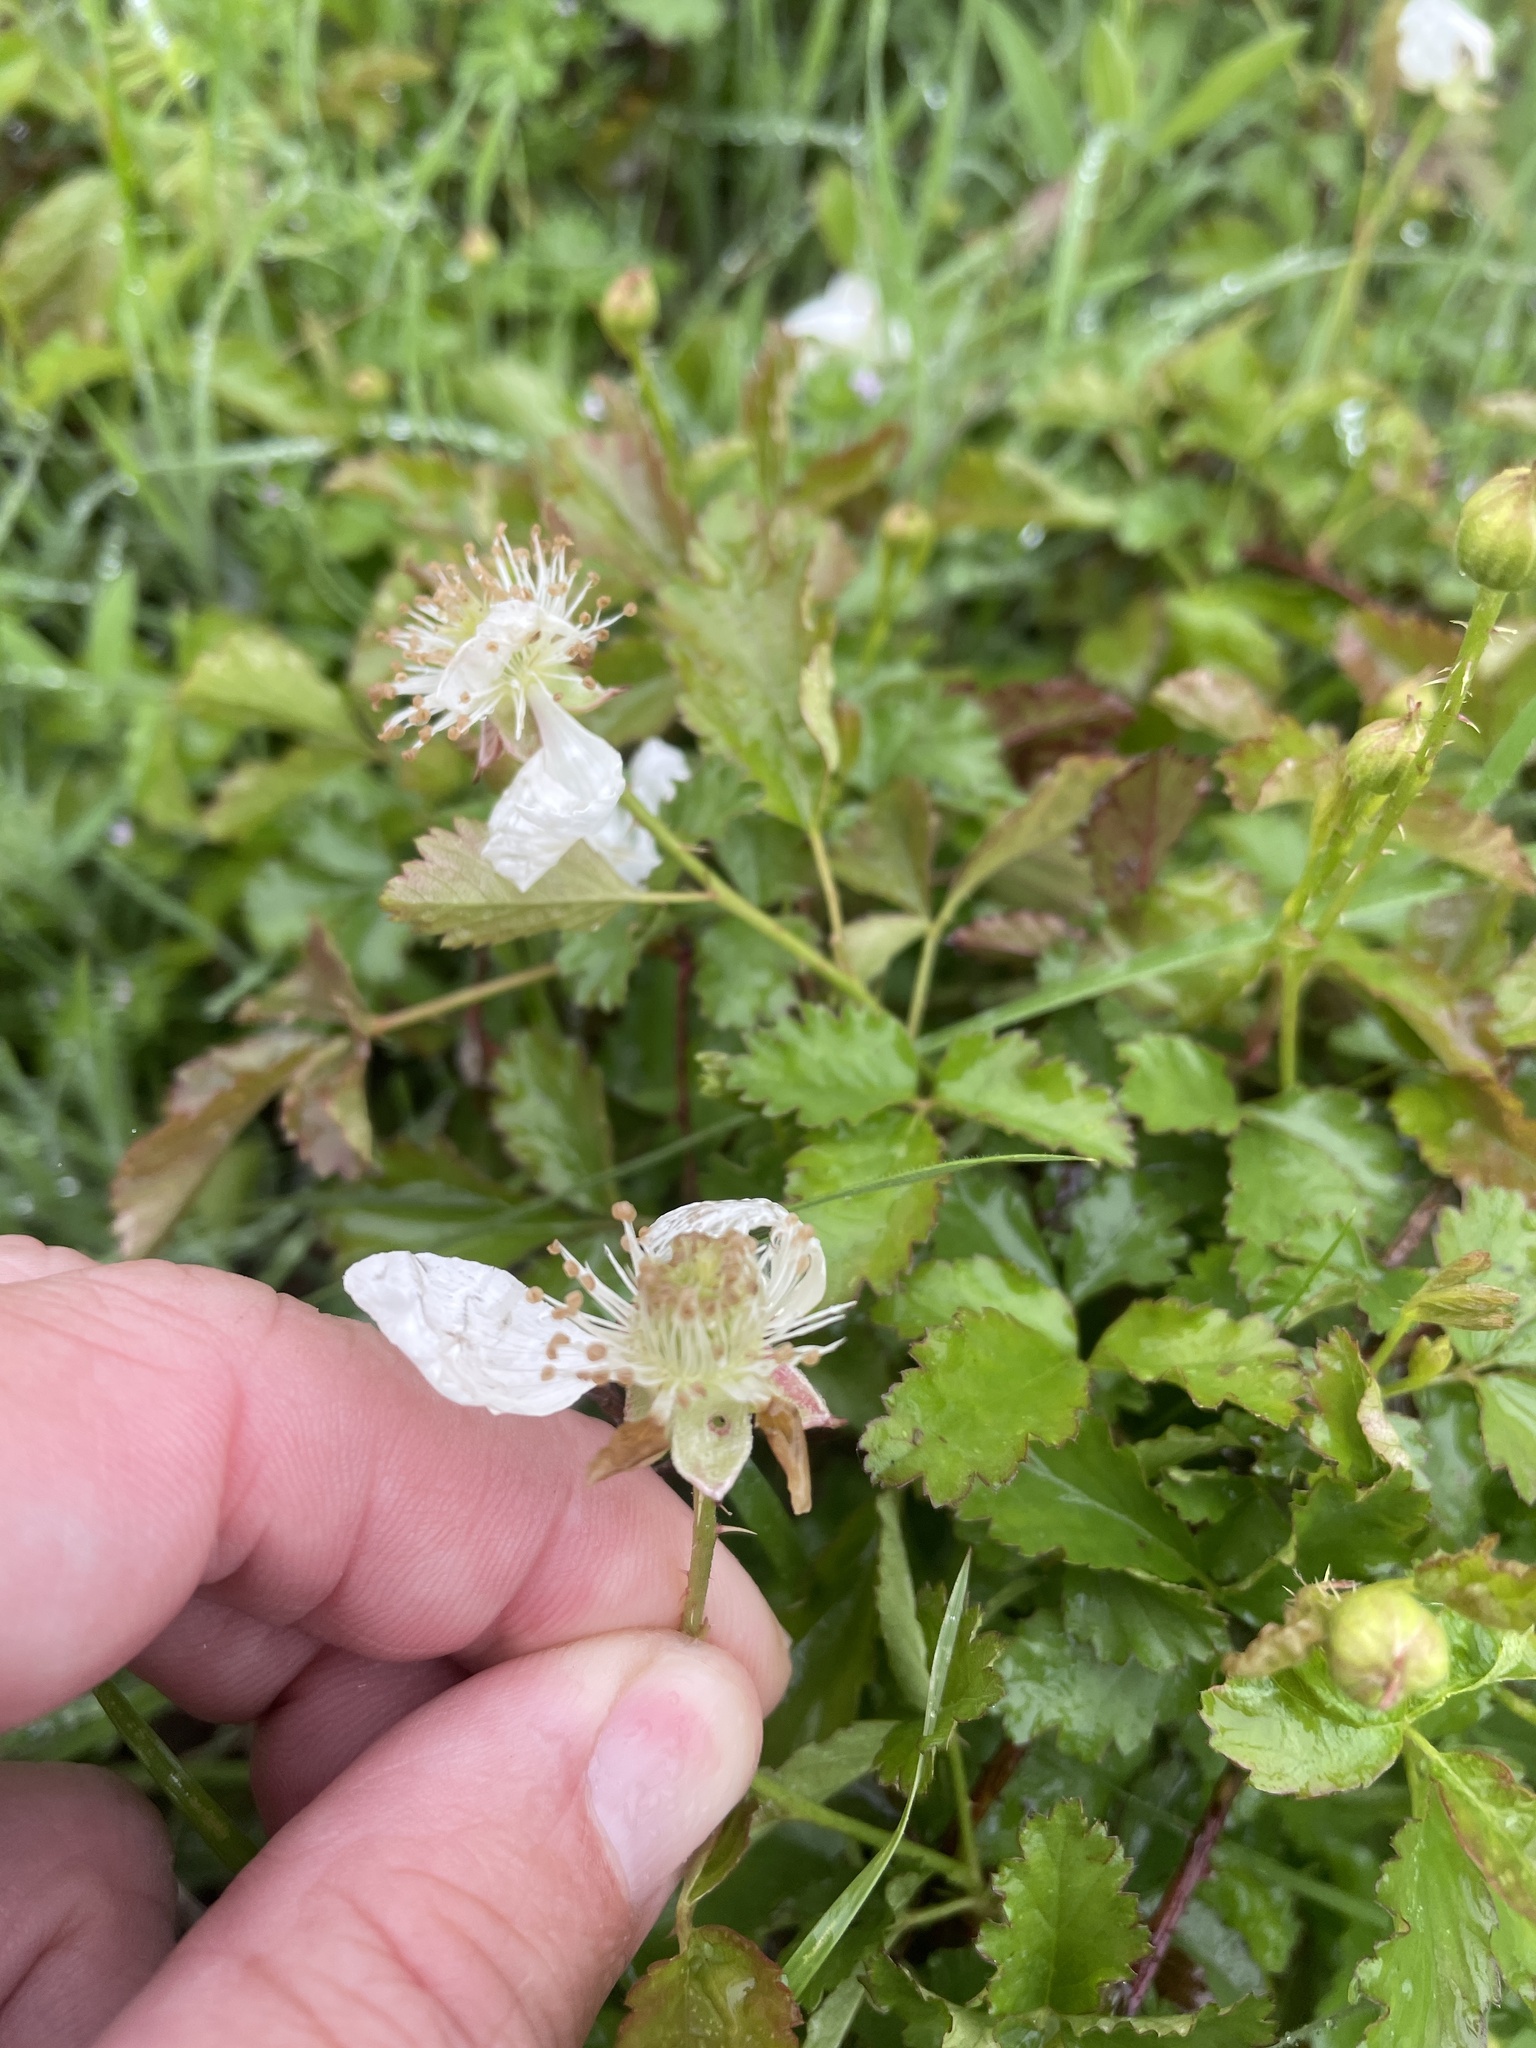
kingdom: Plantae
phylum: Tracheophyta
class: Magnoliopsida
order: Rosales
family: Rosaceae
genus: Rubus
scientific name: Rubus trivialis
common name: Southern dewberry
